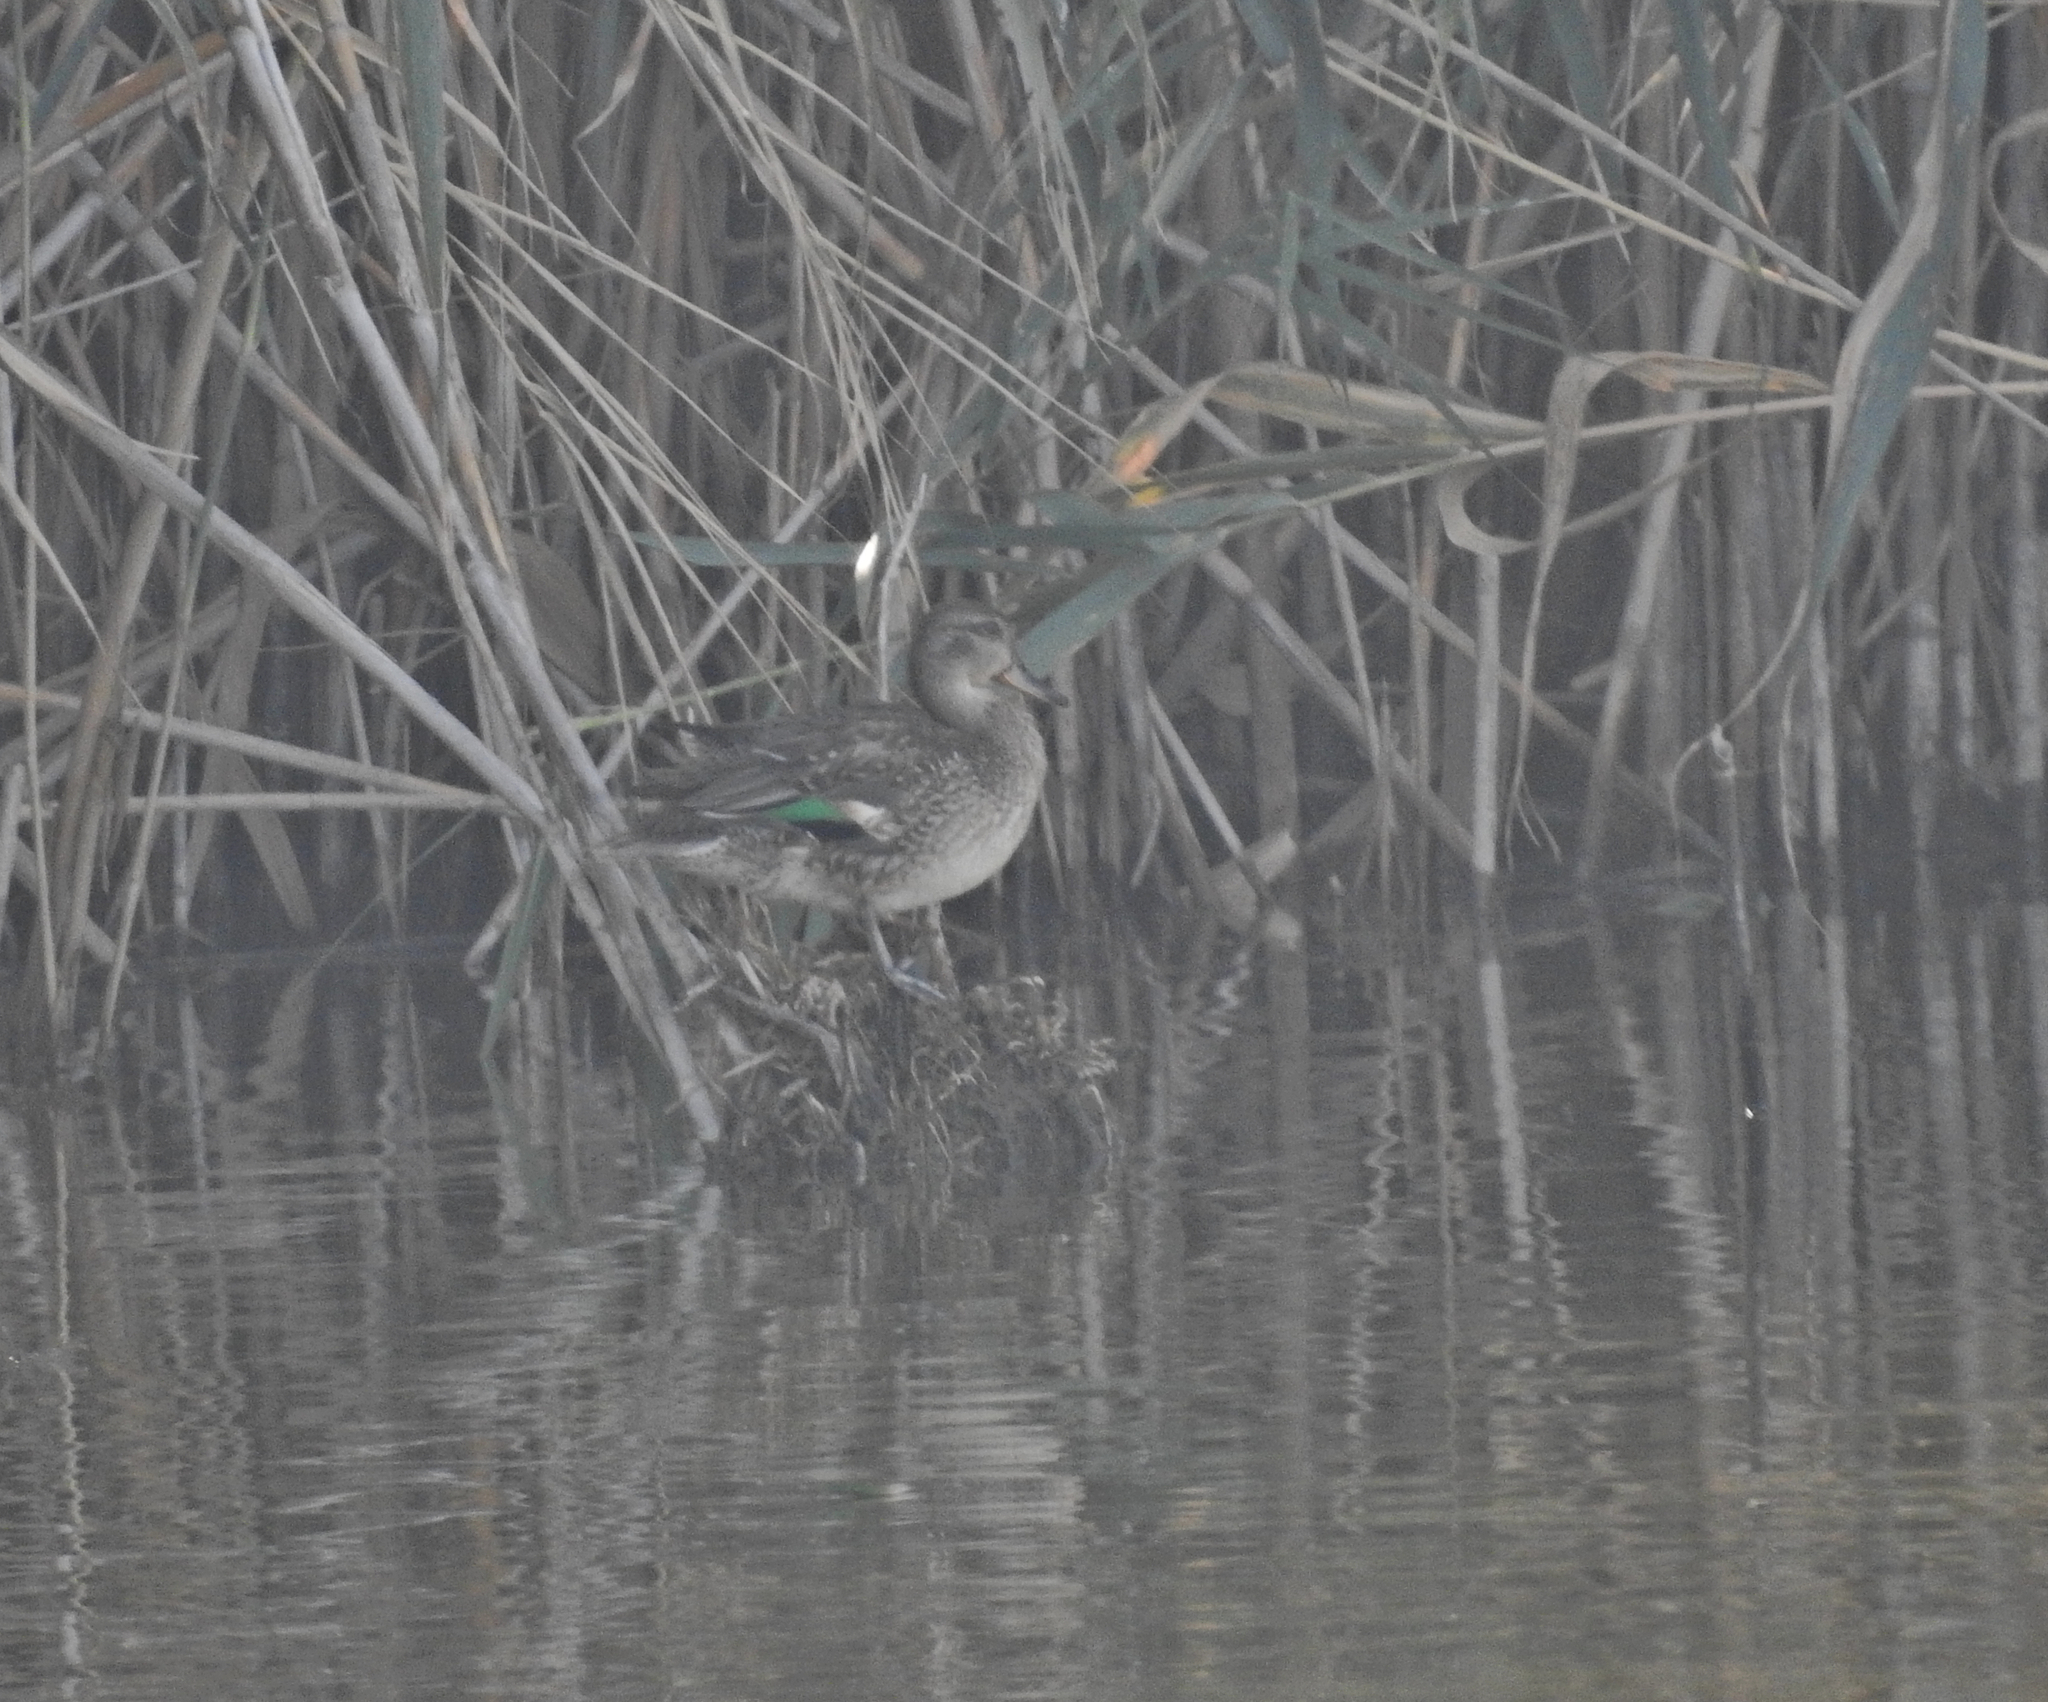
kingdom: Animalia
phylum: Chordata
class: Aves
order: Anseriformes
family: Anatidae
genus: Anas
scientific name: Anas crecca
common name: Eurasian teal
